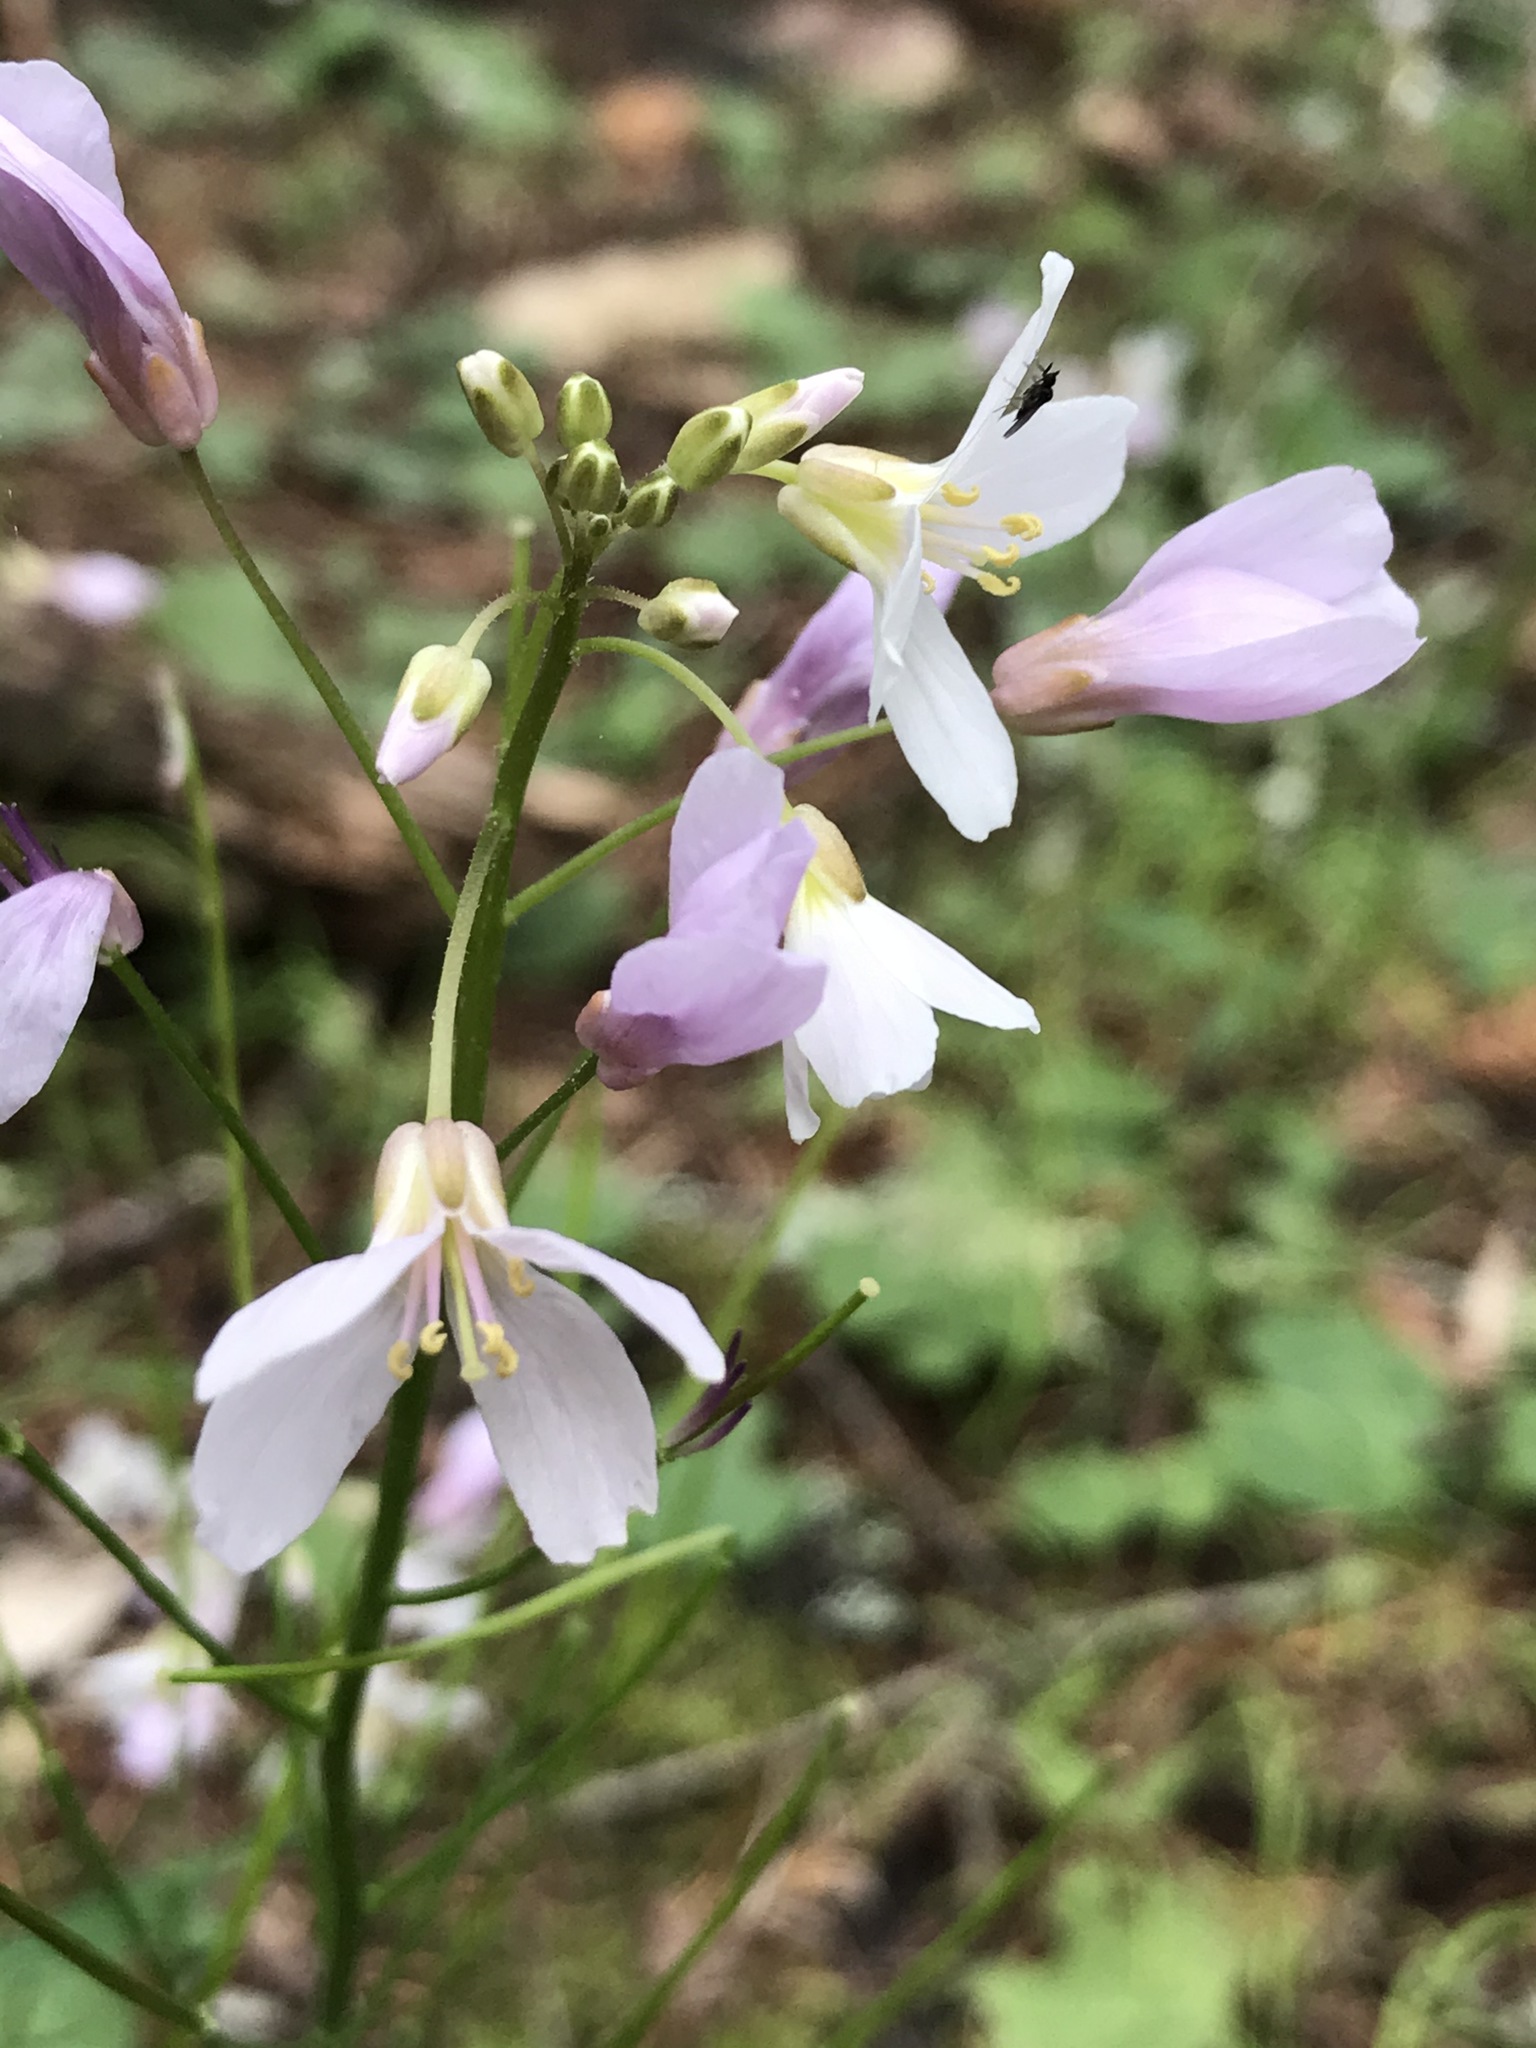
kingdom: Plantae
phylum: Tracheophyta
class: Magnoliopsida
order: Brassicales
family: Brassicaceae
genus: Cardamine
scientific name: Cardamine californica
